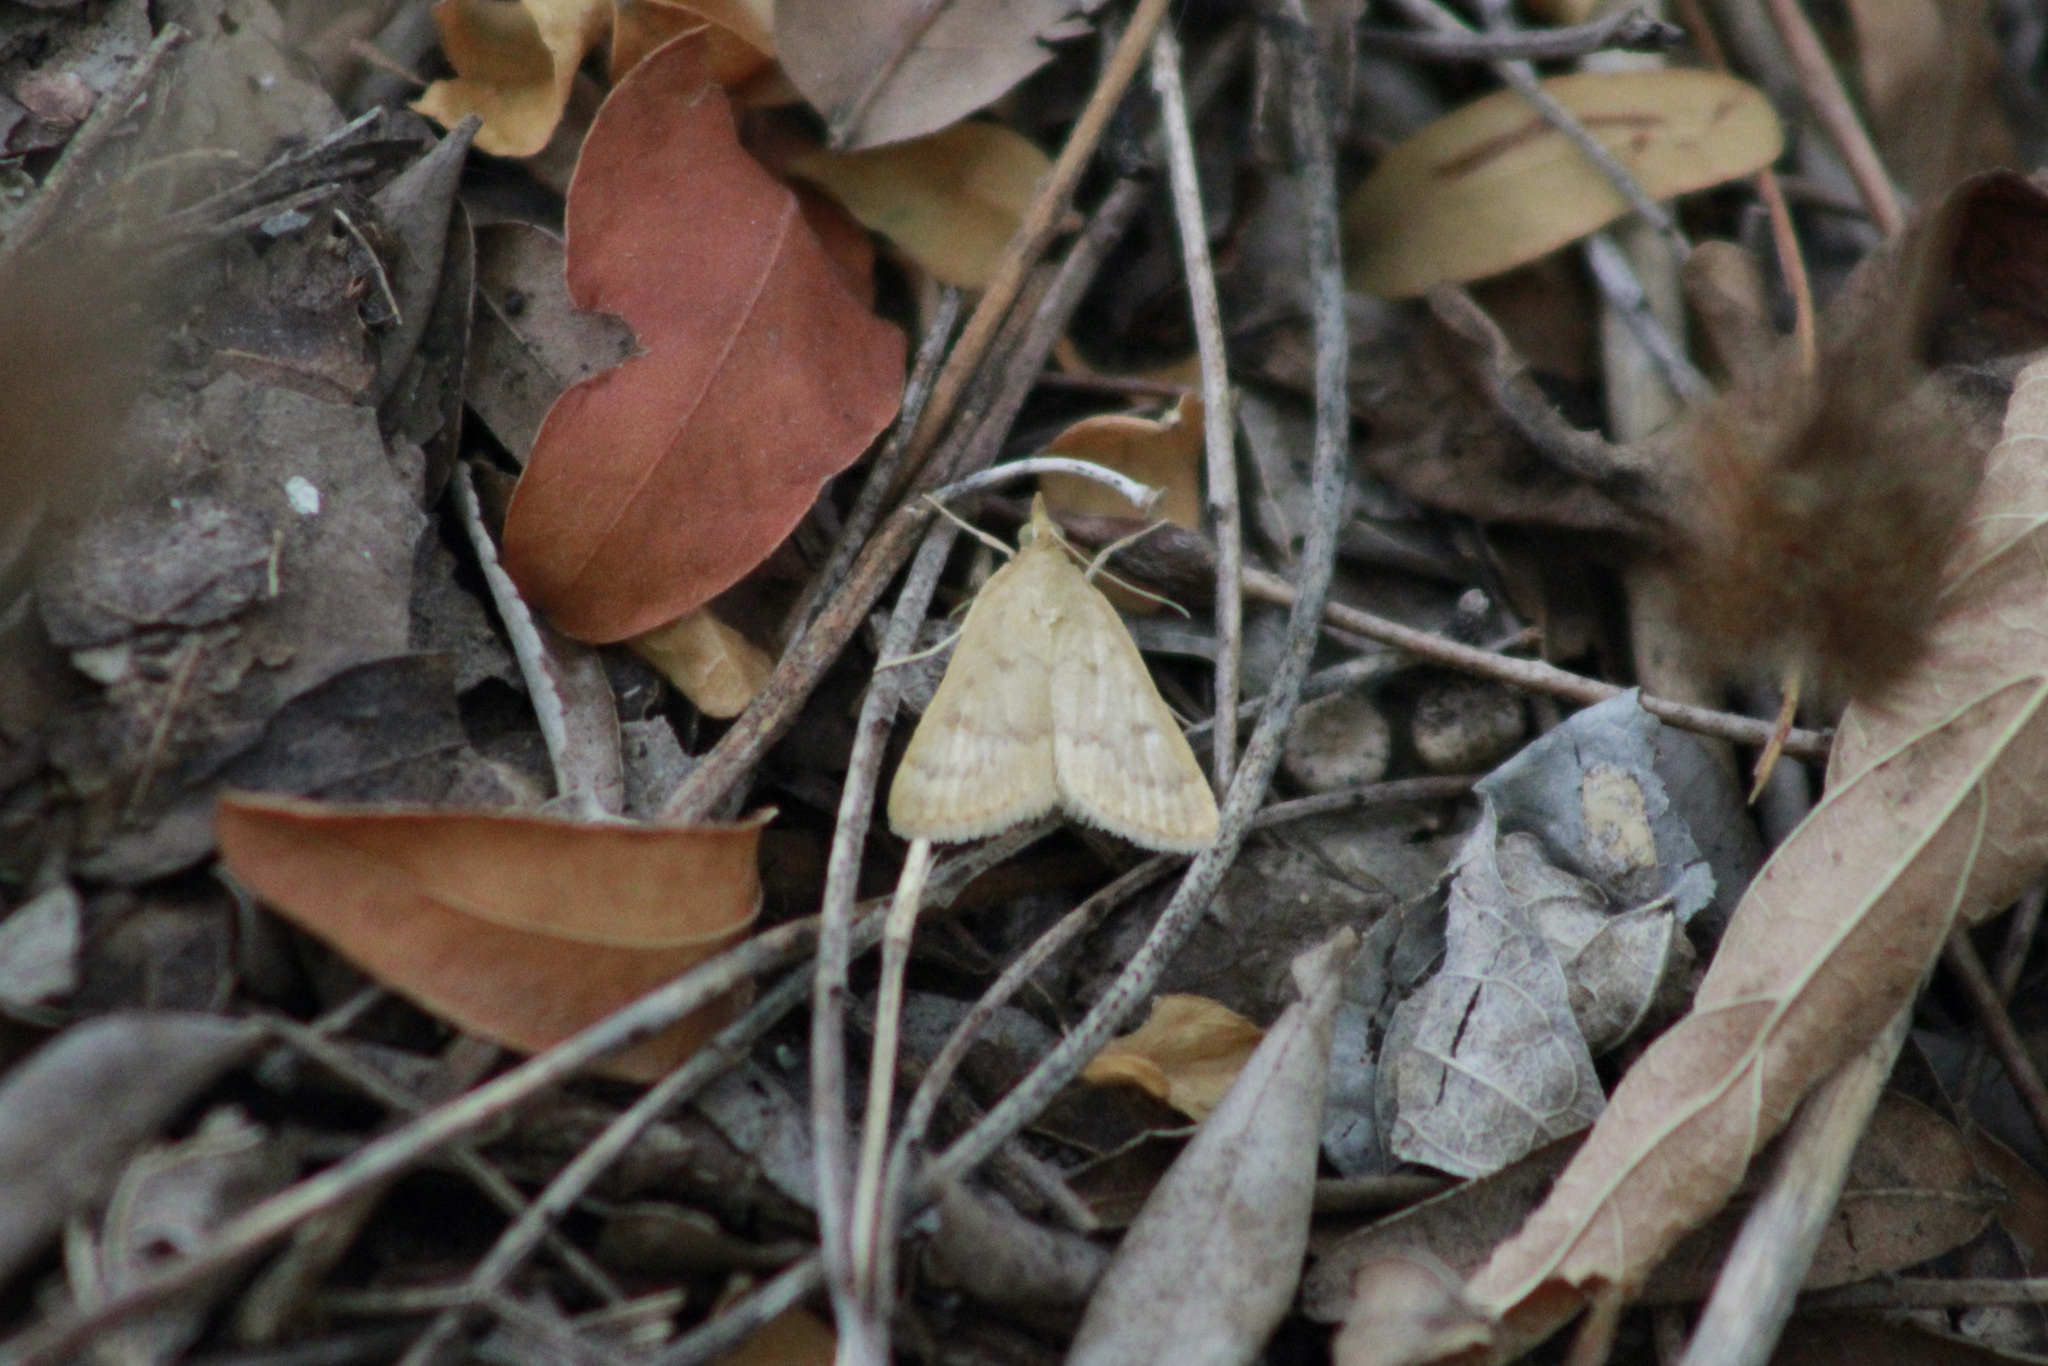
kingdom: Animalia
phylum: Arthropoda
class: Insecta
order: Lepidoptera
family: Crambidae
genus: Achyra
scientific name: Achyra rantalis
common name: Garden webworm
